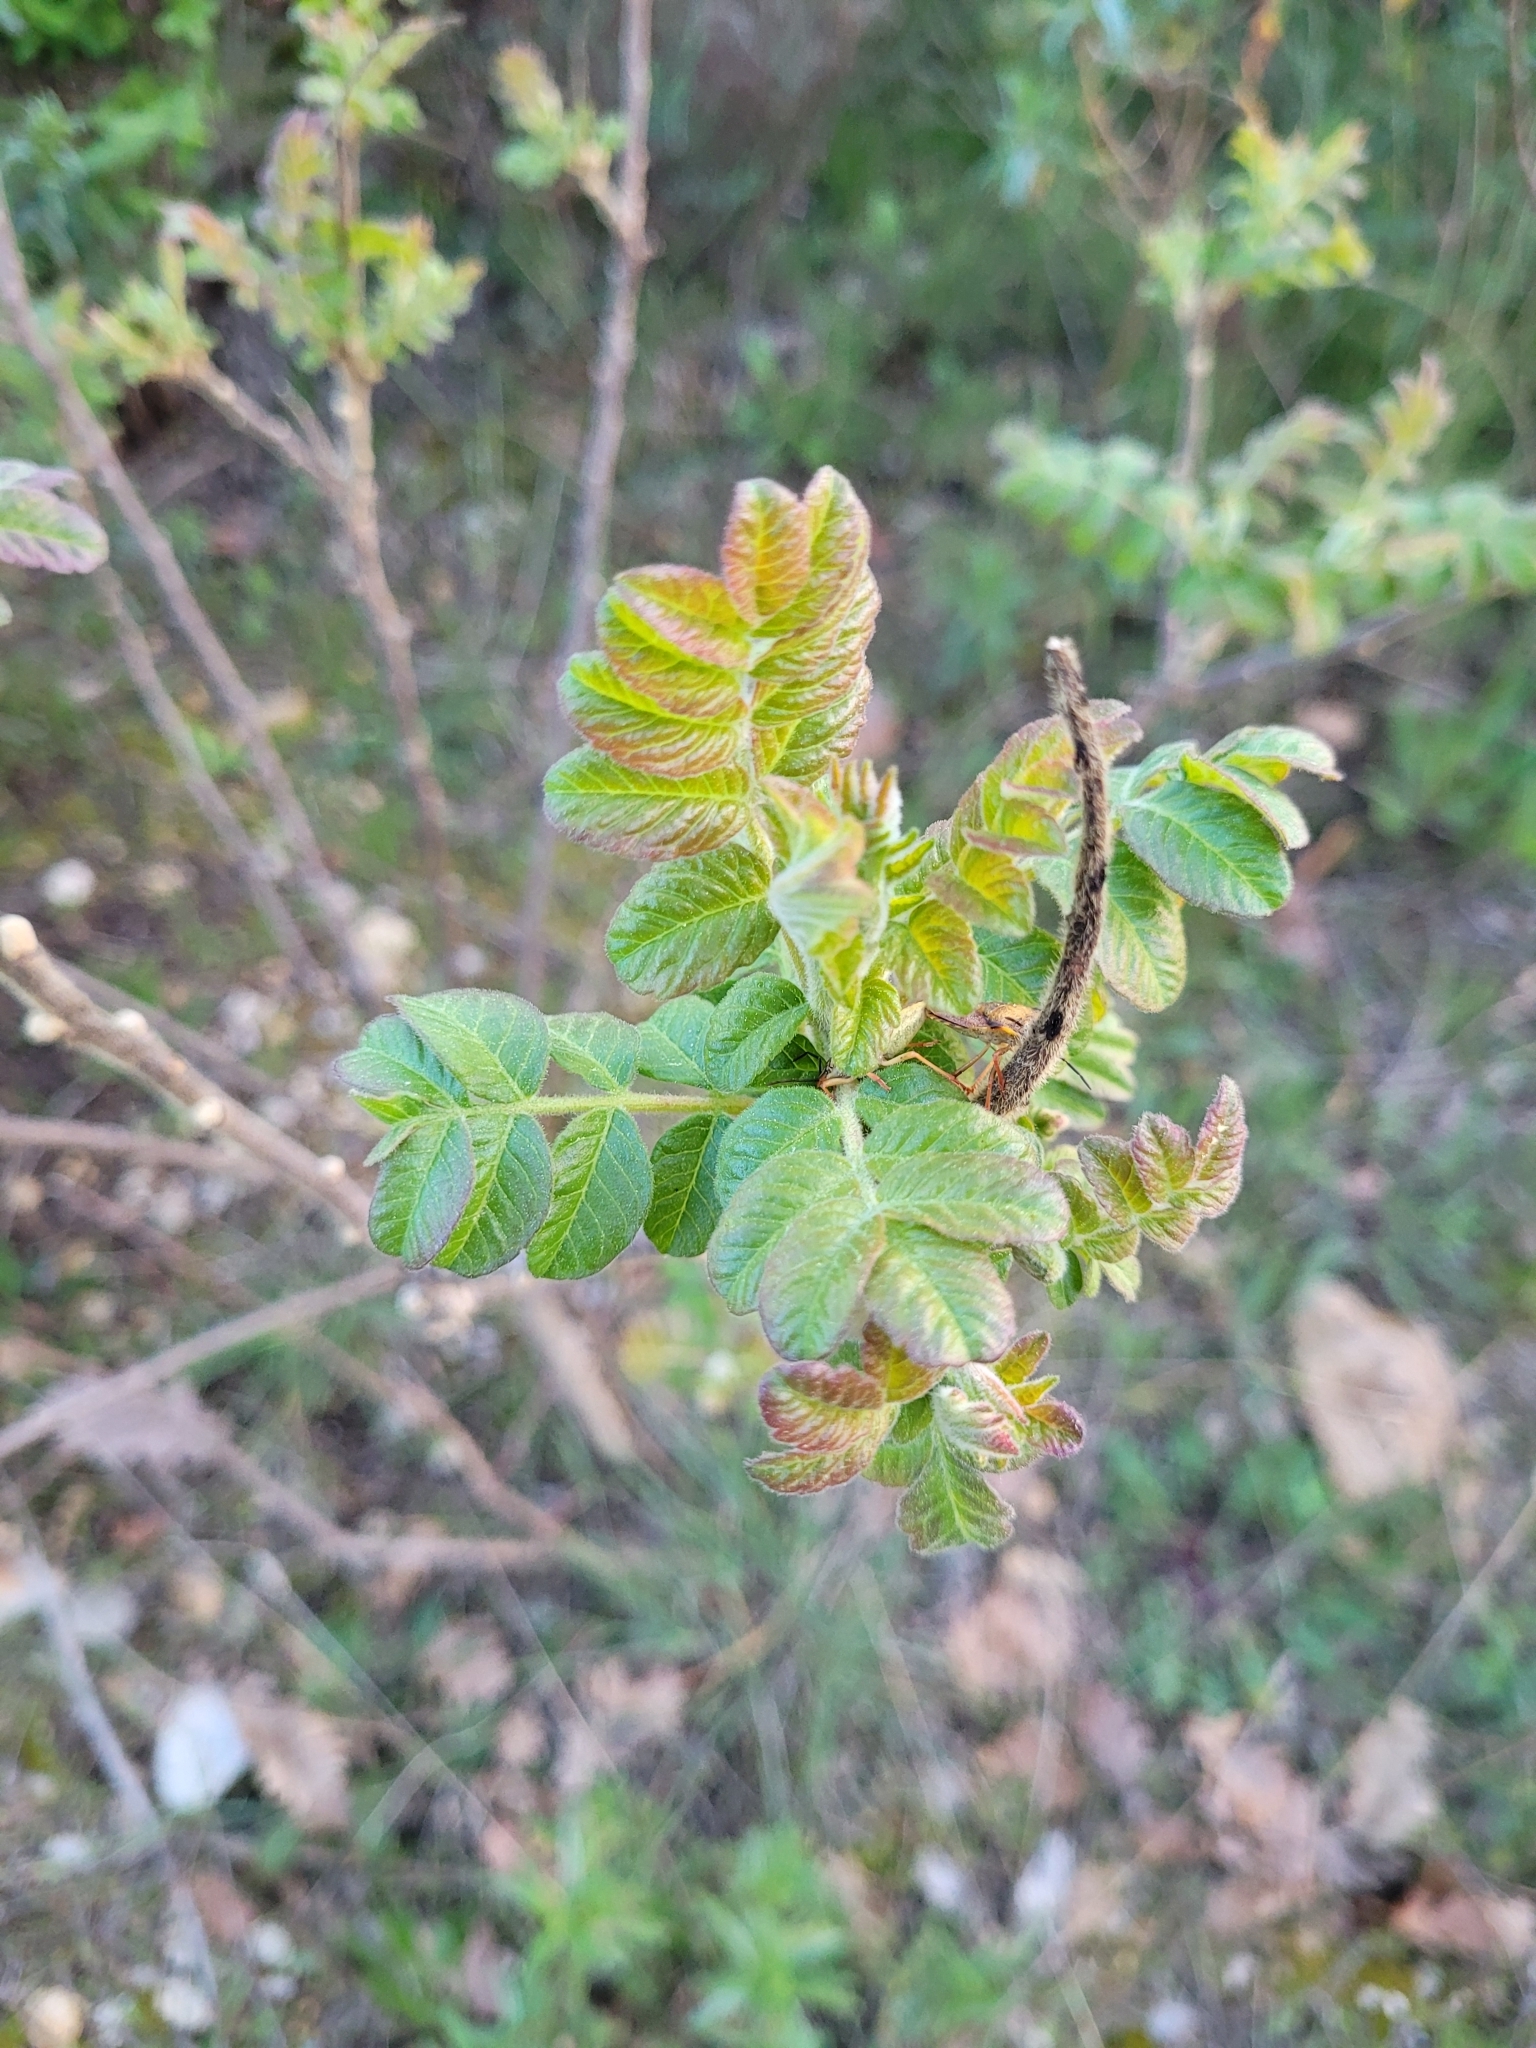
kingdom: Plantae
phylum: Tracheophyta
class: Magnoliopsida
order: Sapindales
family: Anacardiaceae
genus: Rhus
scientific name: Rhus coriaria
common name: Tanner's sumach
